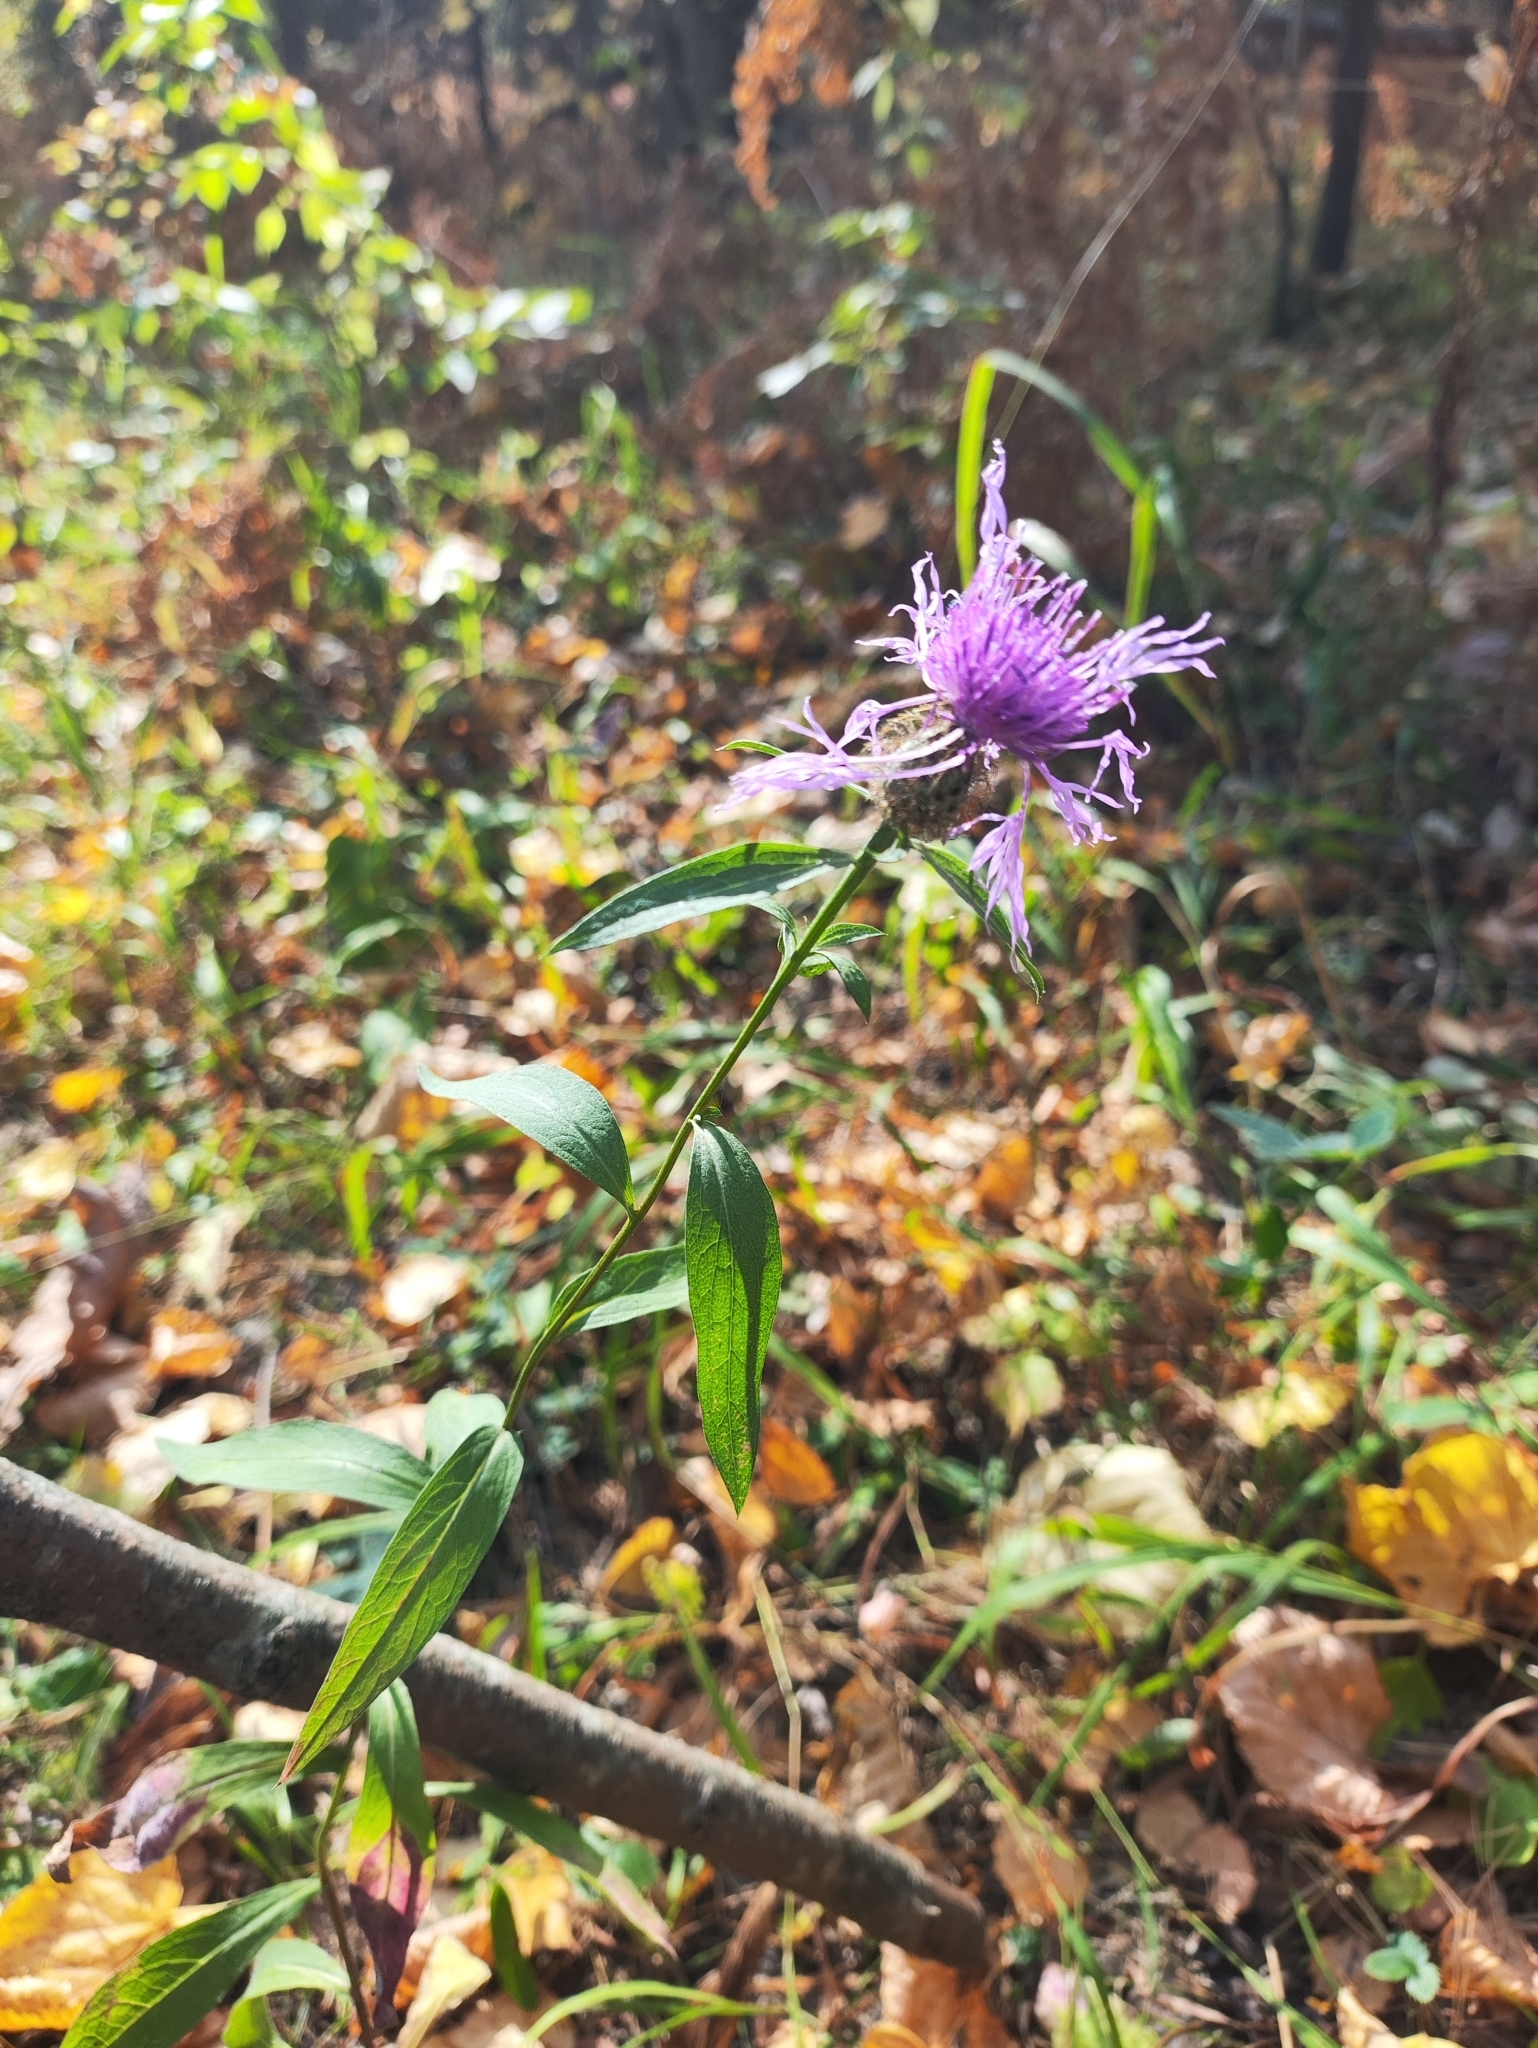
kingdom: Plantae
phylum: Tracheophyta
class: Magnoliopsida
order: Asterales
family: Asteraceae
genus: Centaurea
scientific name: Centaurea phrygia
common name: Wig knapweed
